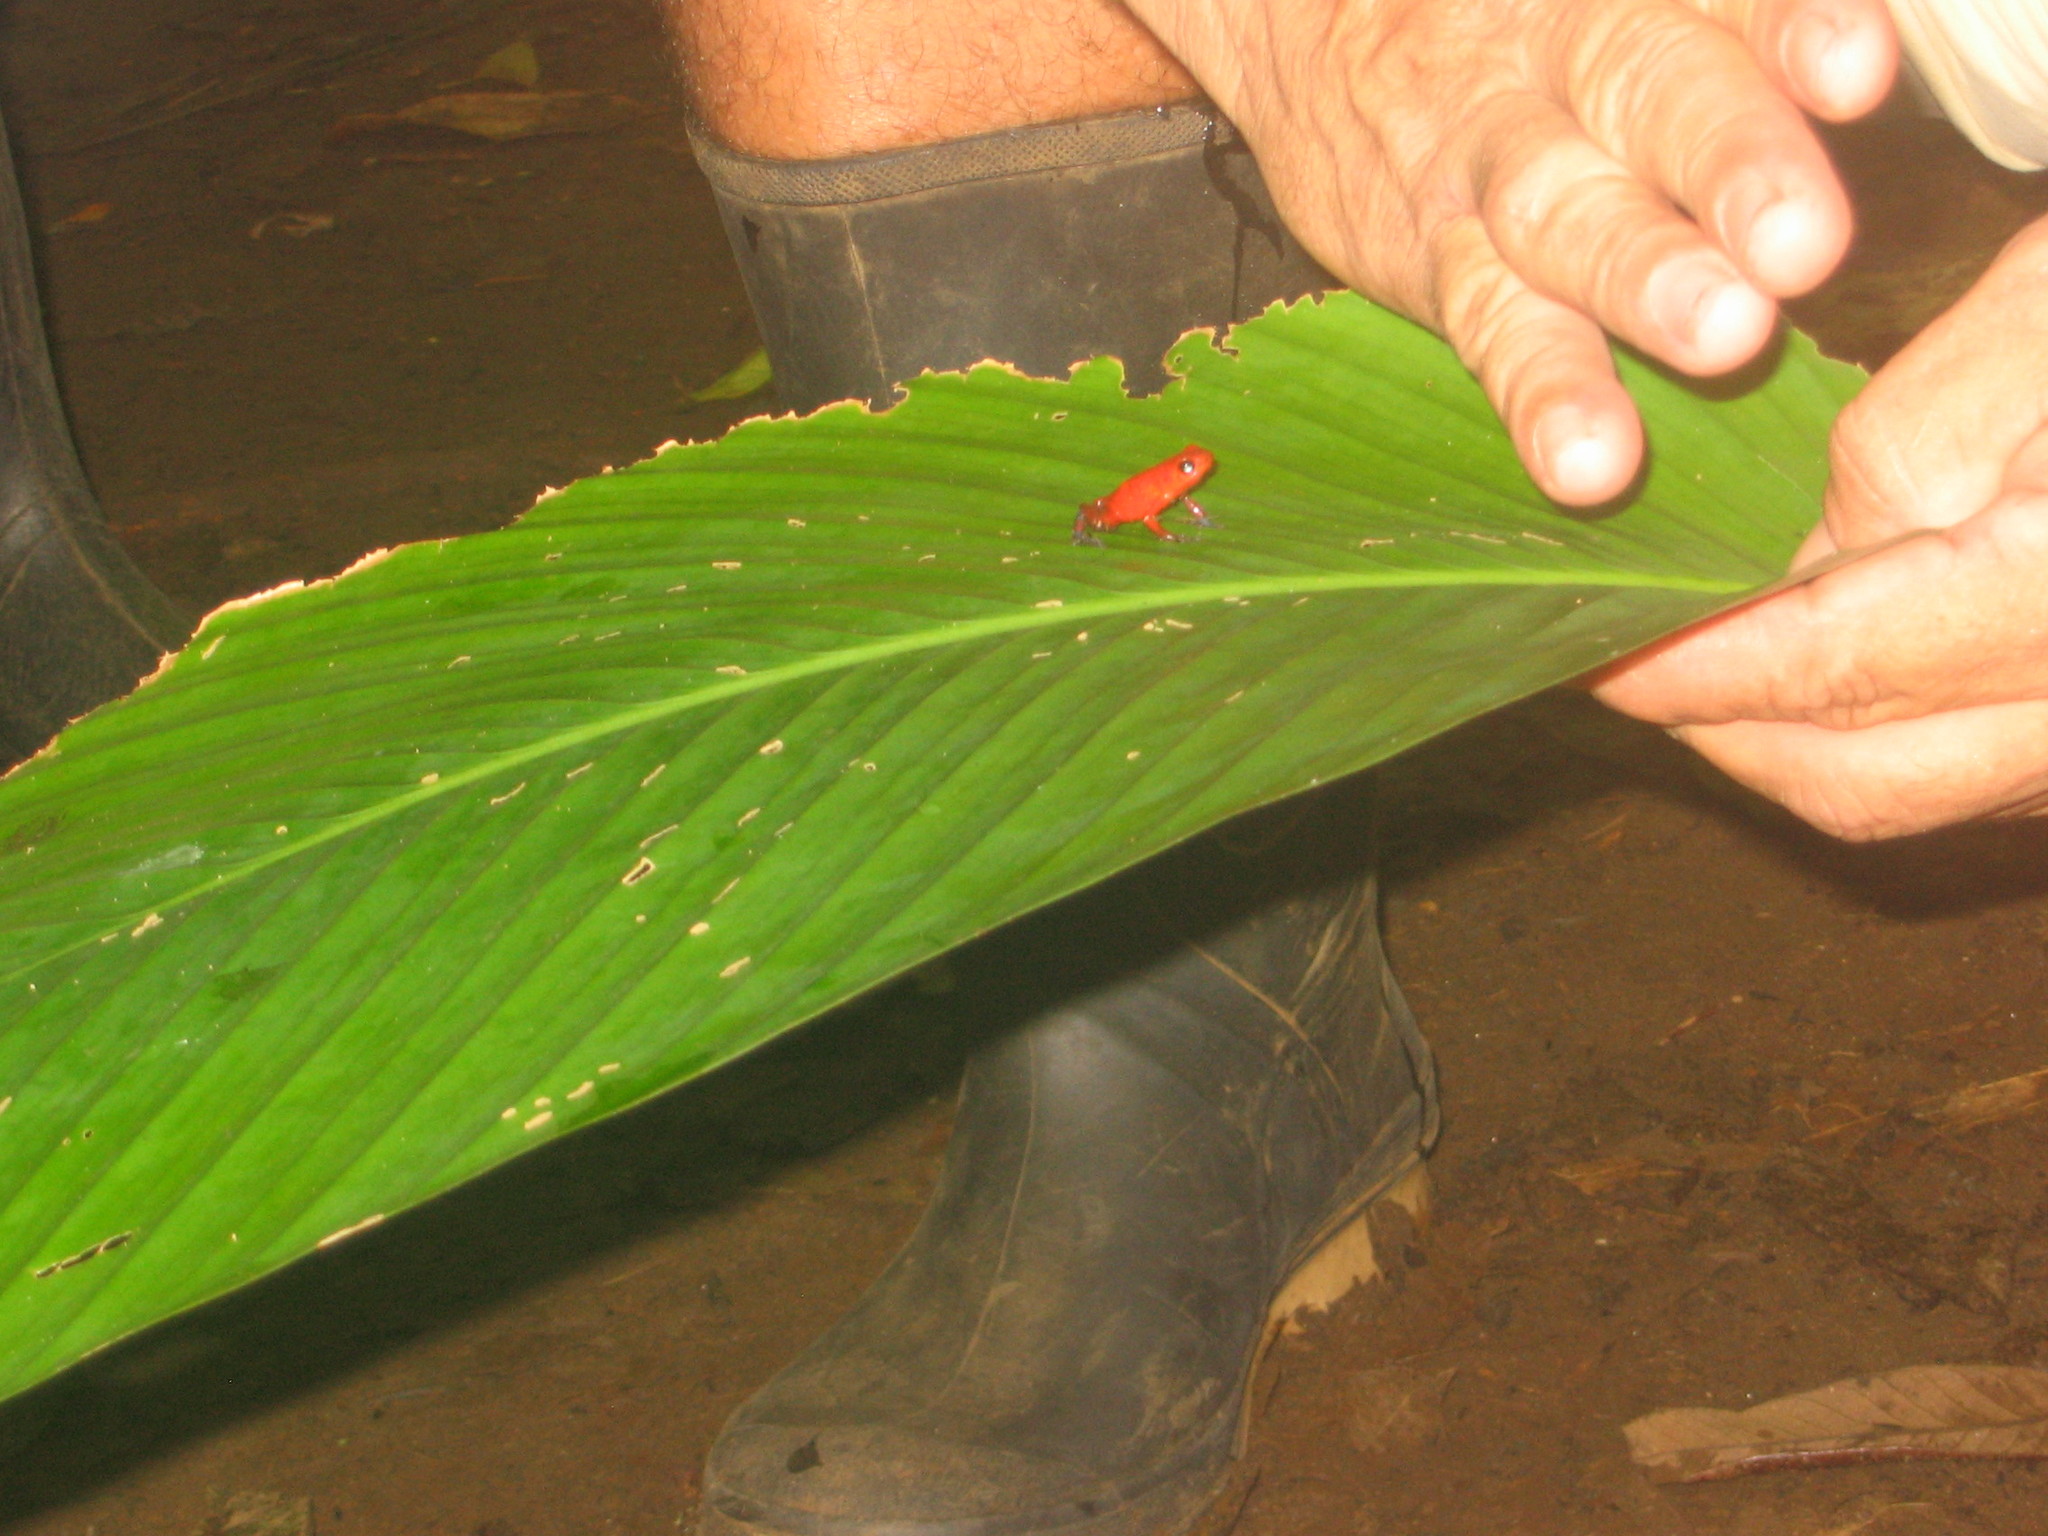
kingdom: Animalia
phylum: Chordata
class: Amphibia
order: Anura
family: Dendrobatidae
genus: Oophaga
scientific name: Oophaga pumilio
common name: Flaming poison frog
